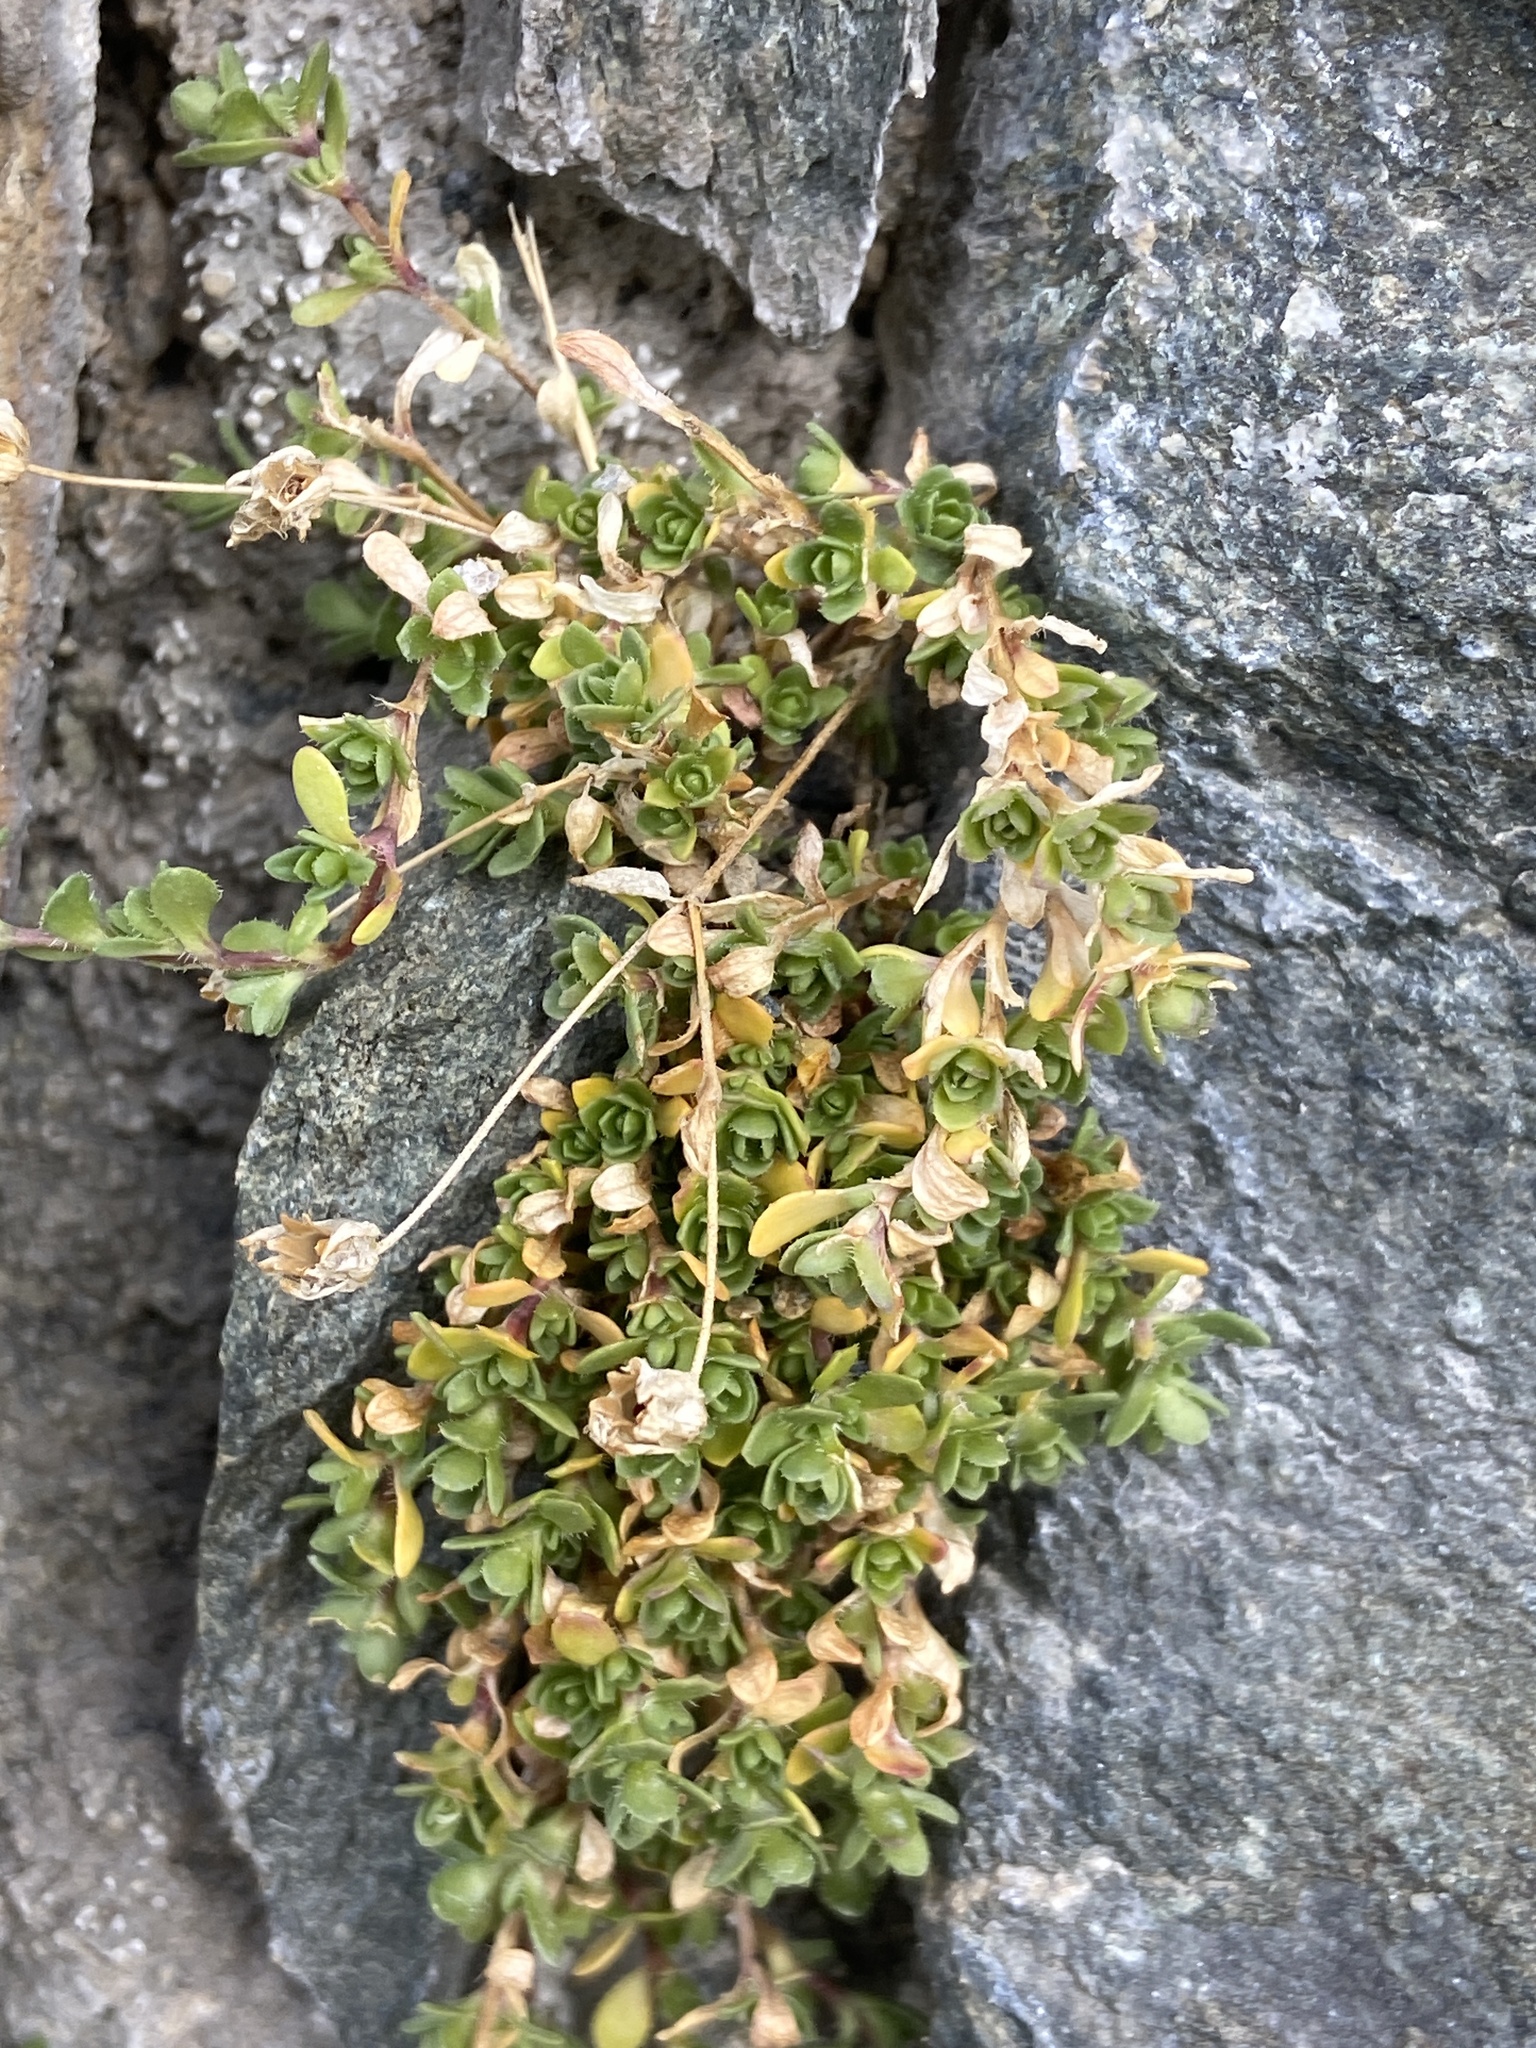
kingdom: Plantae
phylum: Tracheophyta
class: Magnoliopsida
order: Caryophyllales
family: Caryophyllaceae
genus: Arenaria
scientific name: Arenaria ciliata
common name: Fringed sandwort
